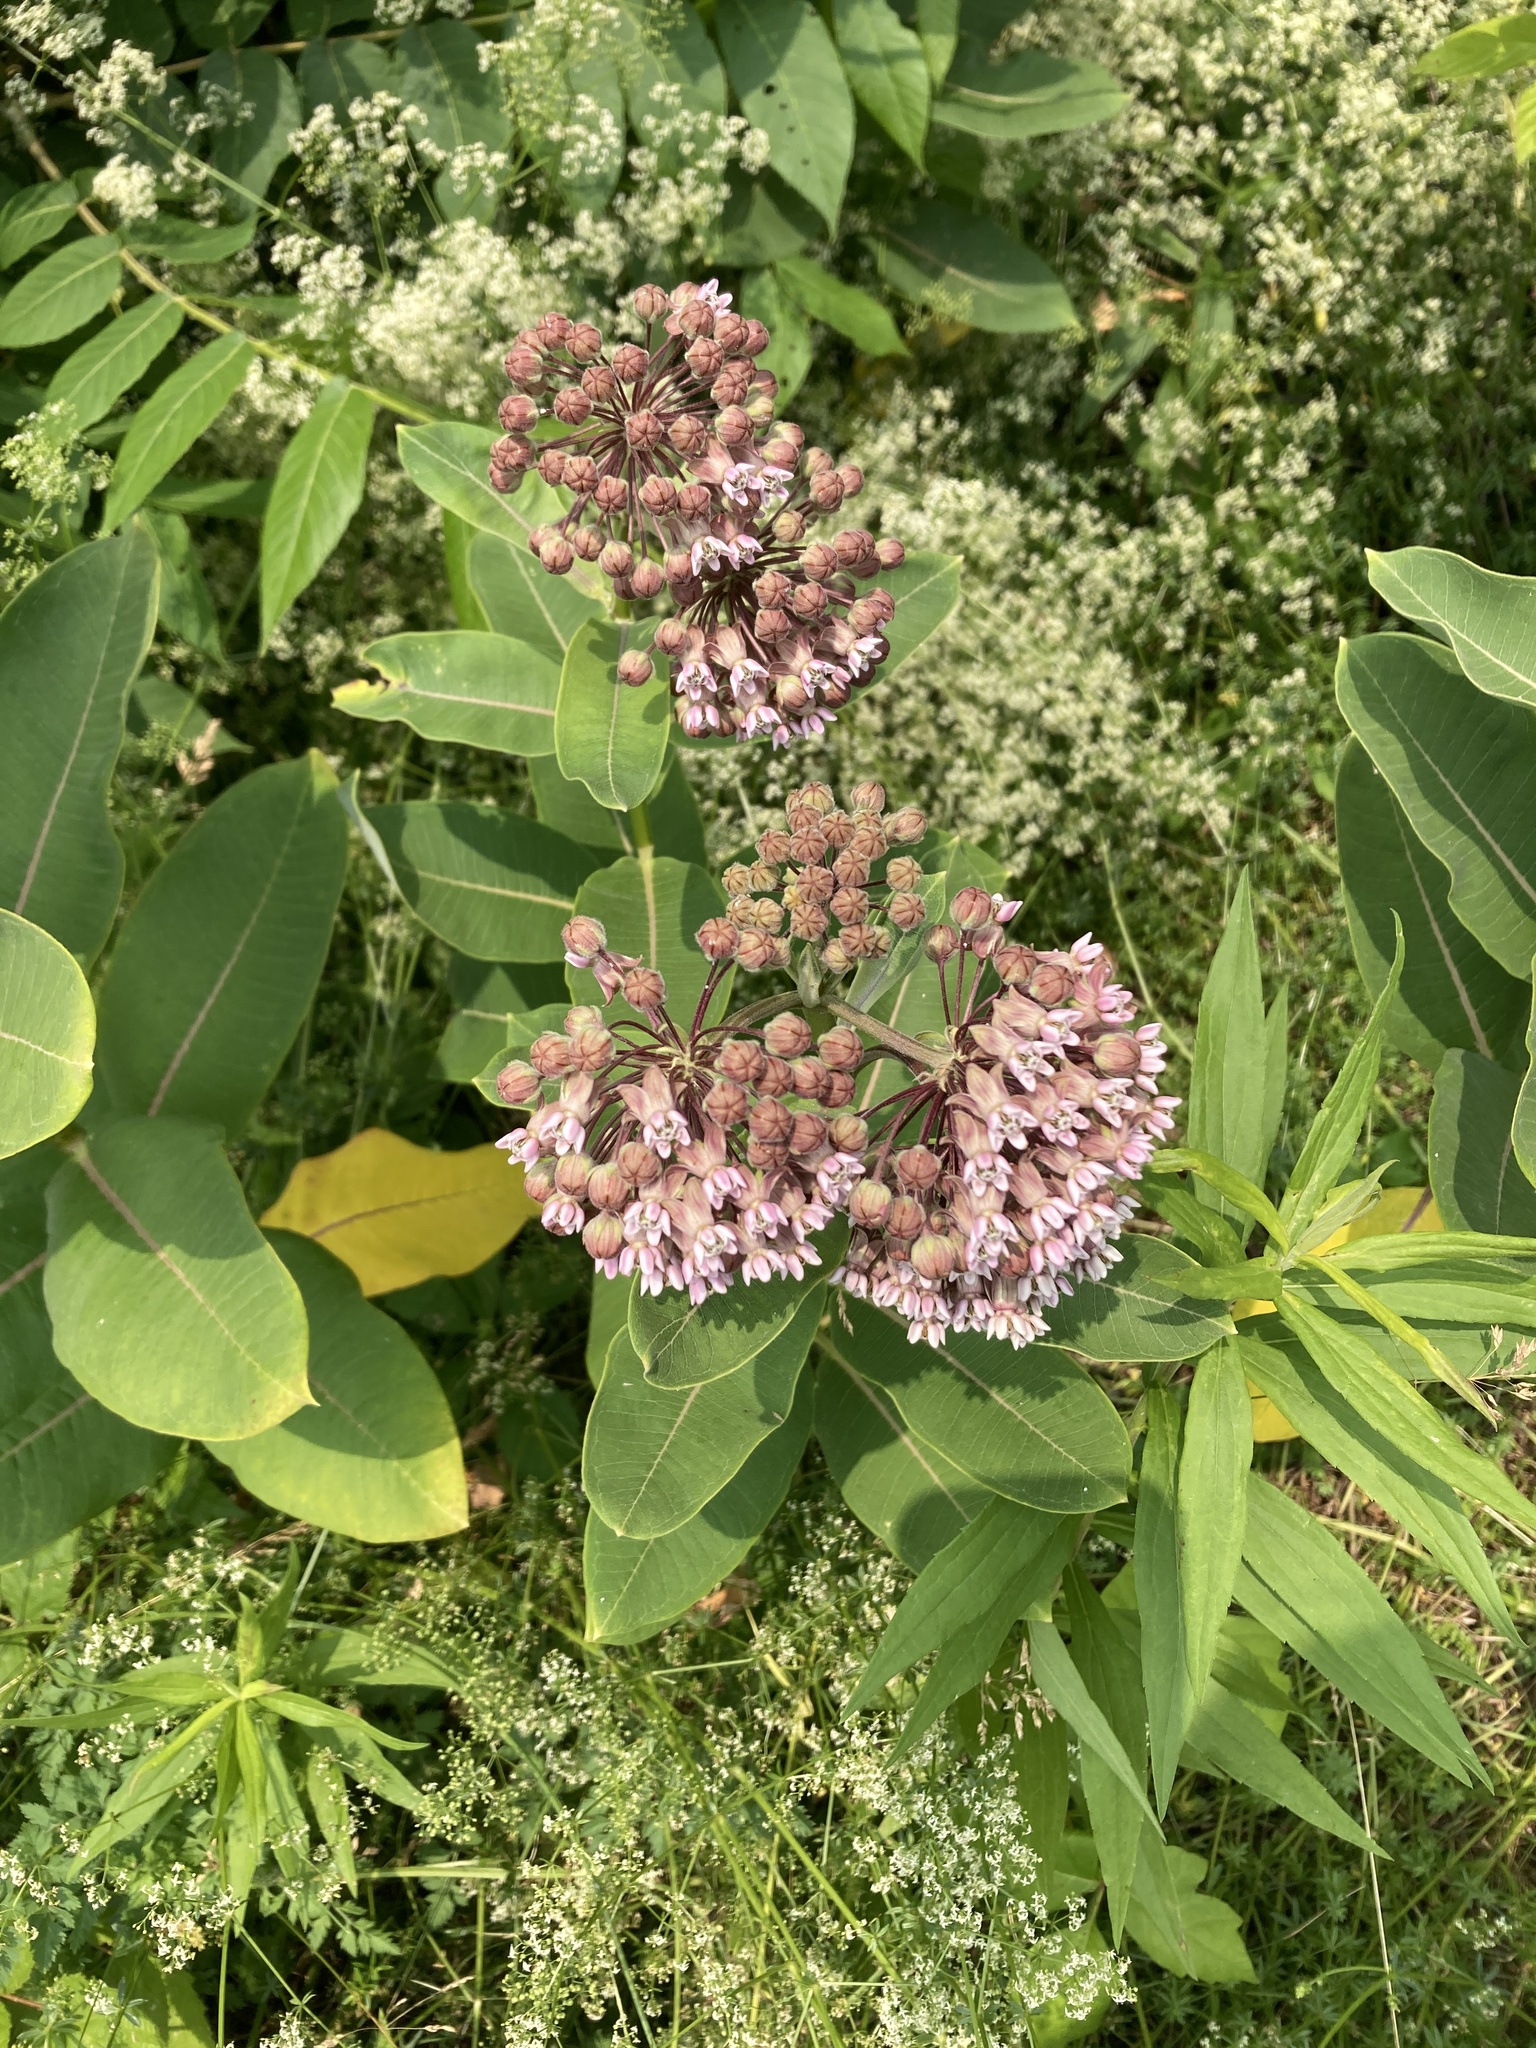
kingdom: Plantae
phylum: Tracheophyta
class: Magnoliopsida
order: Gentianales
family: Apocynaceae
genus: Asclepias
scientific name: Asclepias syriaca
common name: Common milkweed
